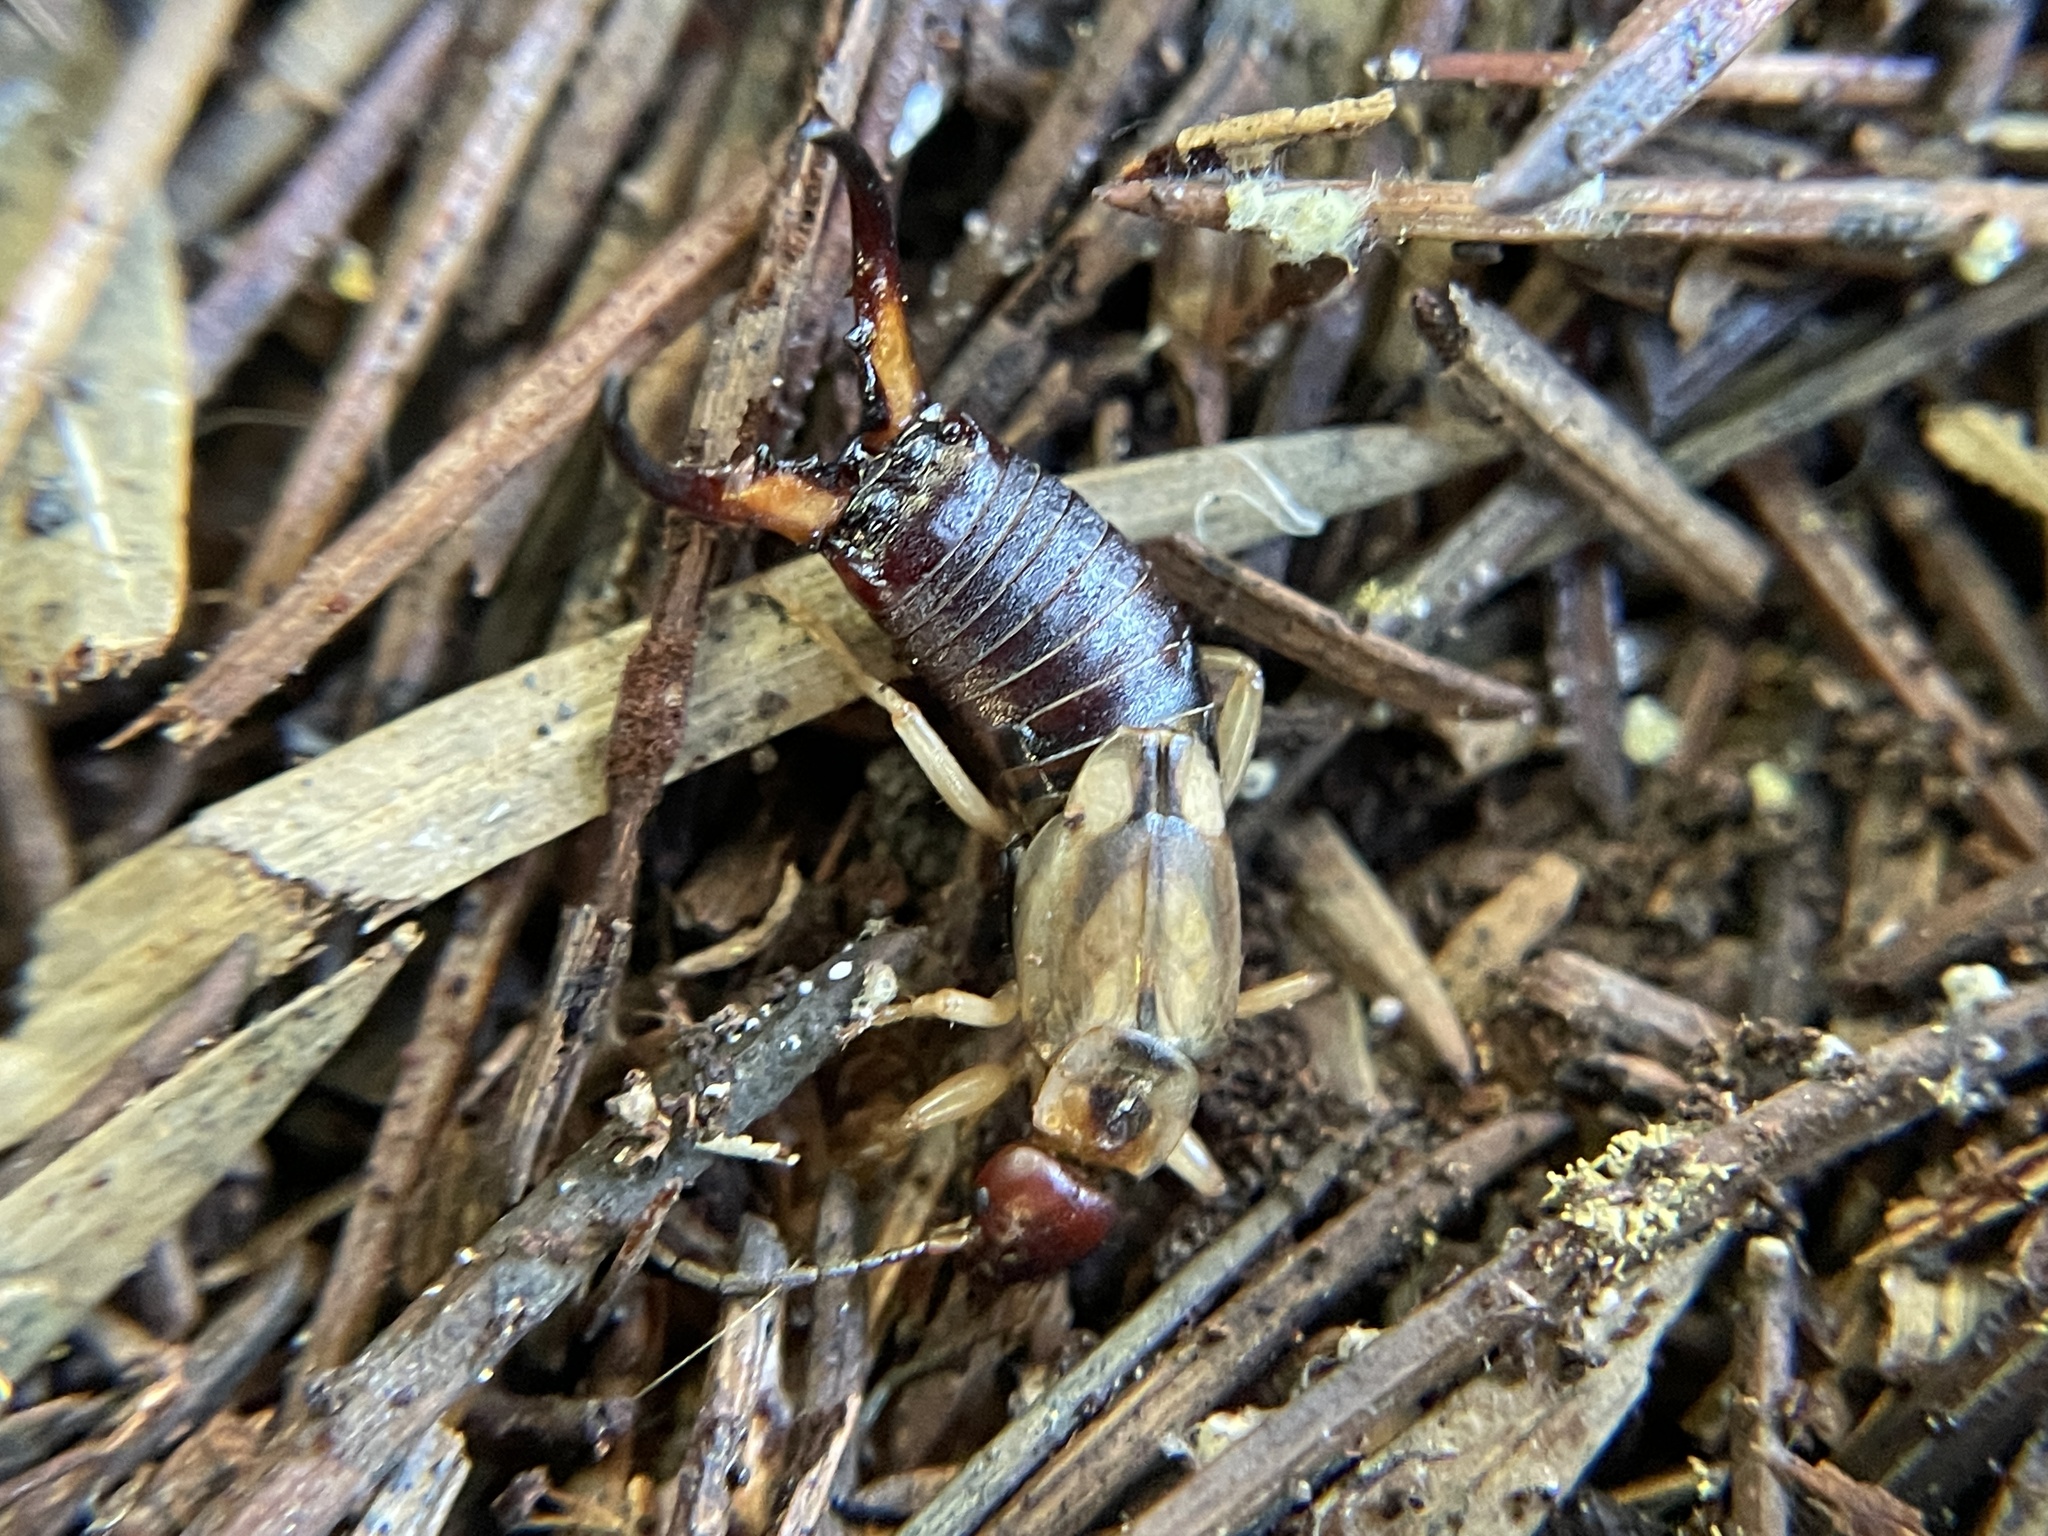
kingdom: Animalia
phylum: Arthropoda
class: Insecta
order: Dermaptera
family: Forficulidae
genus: Forficula
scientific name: Forficula
